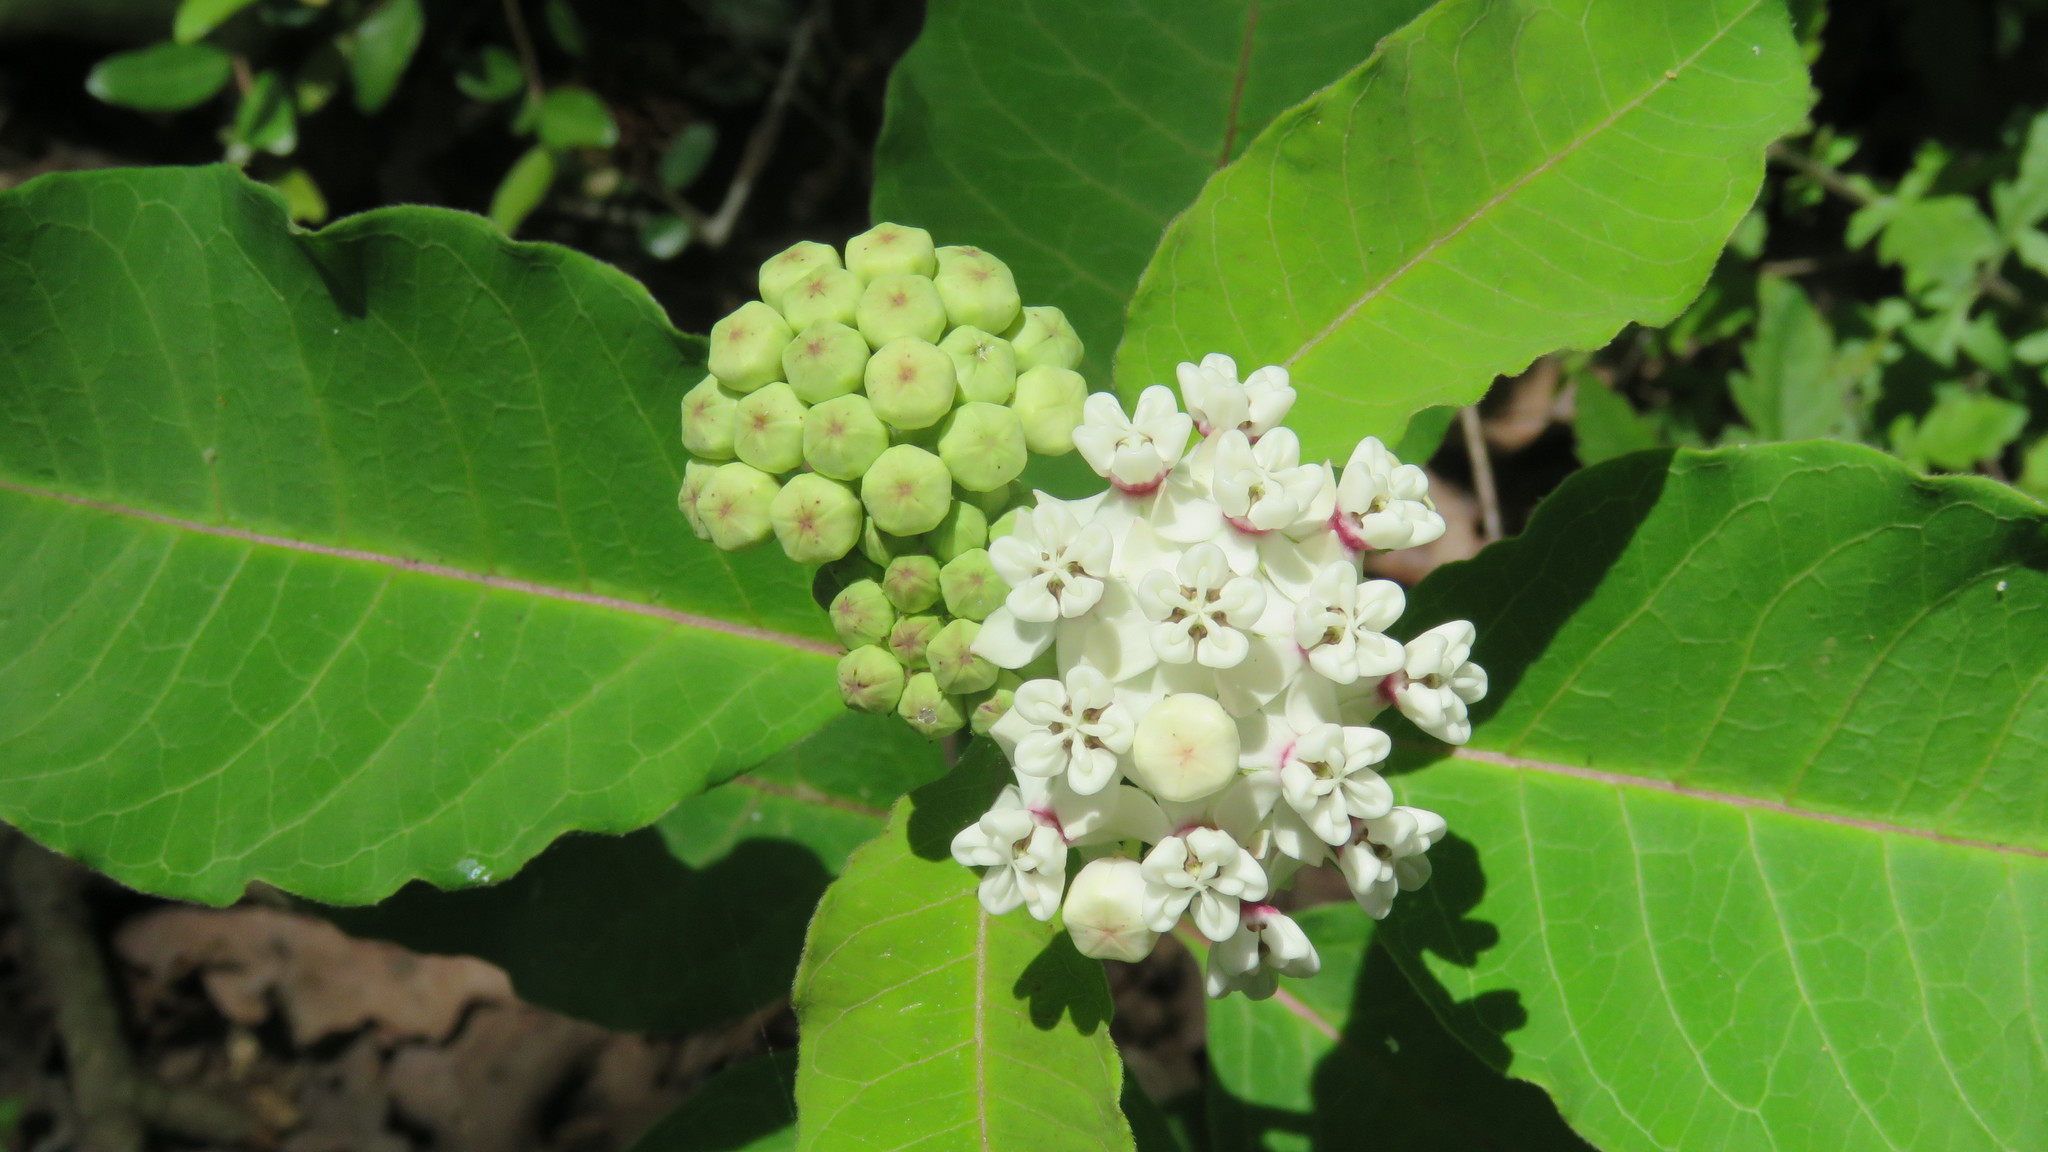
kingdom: Plantae
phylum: Tracheophyta
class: Magnoliopsida
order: Gentianales
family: Apocynaceae
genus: Asclepias
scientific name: Asclepias variegata
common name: Variegated milkweed
